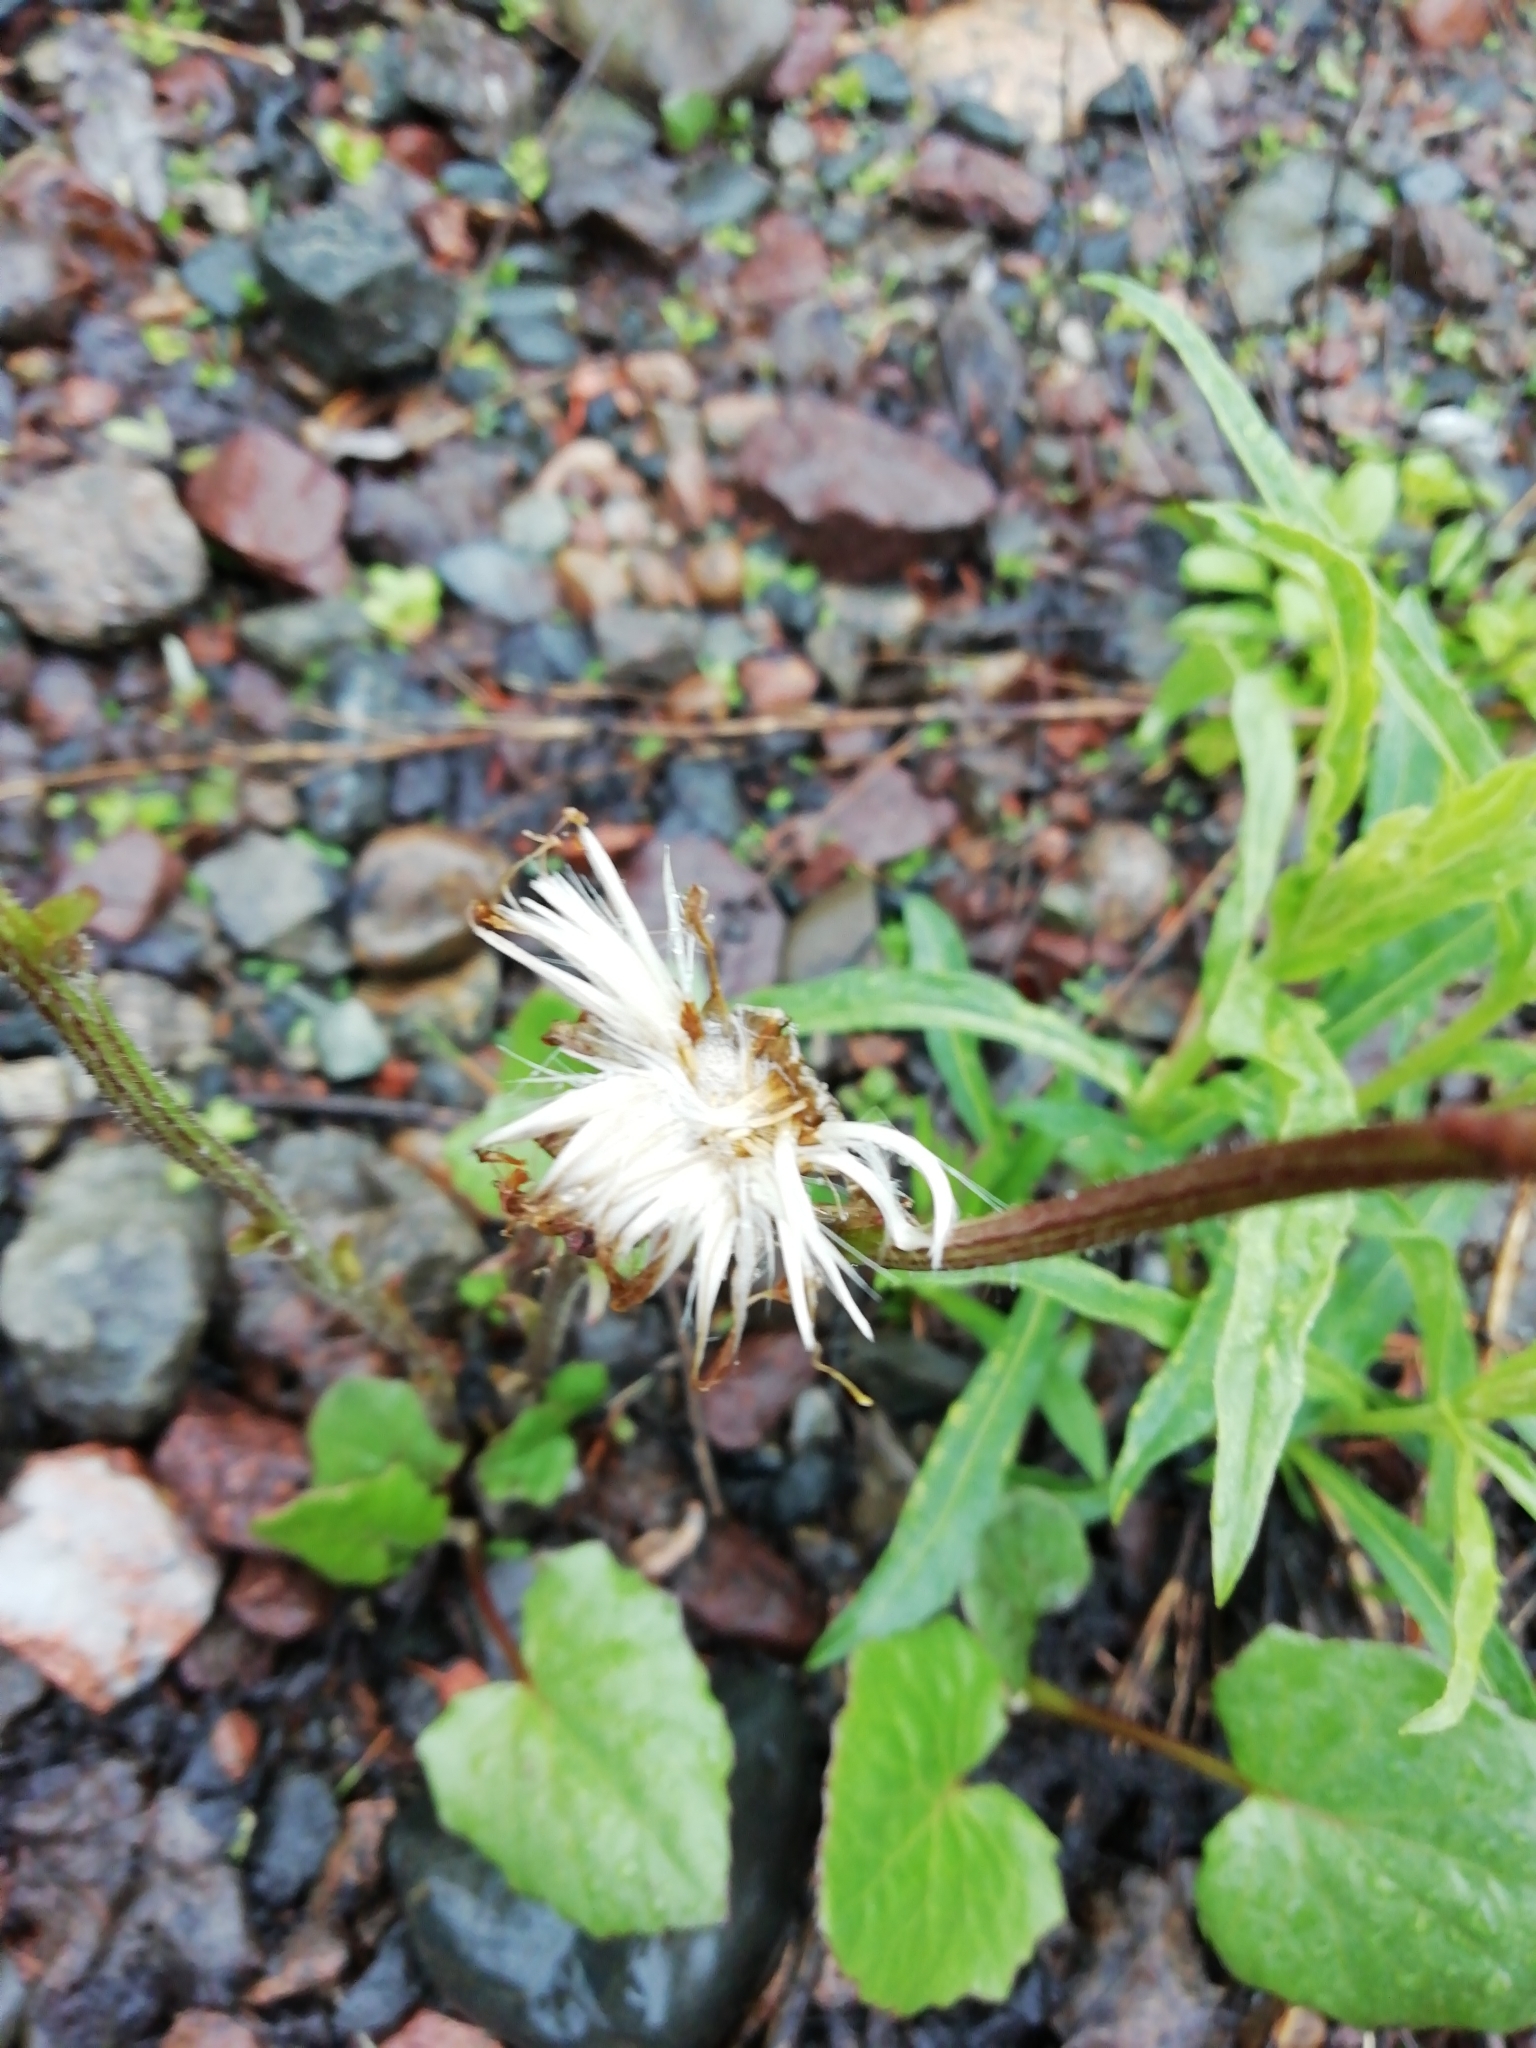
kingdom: Plantae
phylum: Tracheophyta
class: Magnoliopsida
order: Asterales
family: Asteraceae
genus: Tussilago
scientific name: Tussilago farfara
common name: Coltsfoot
